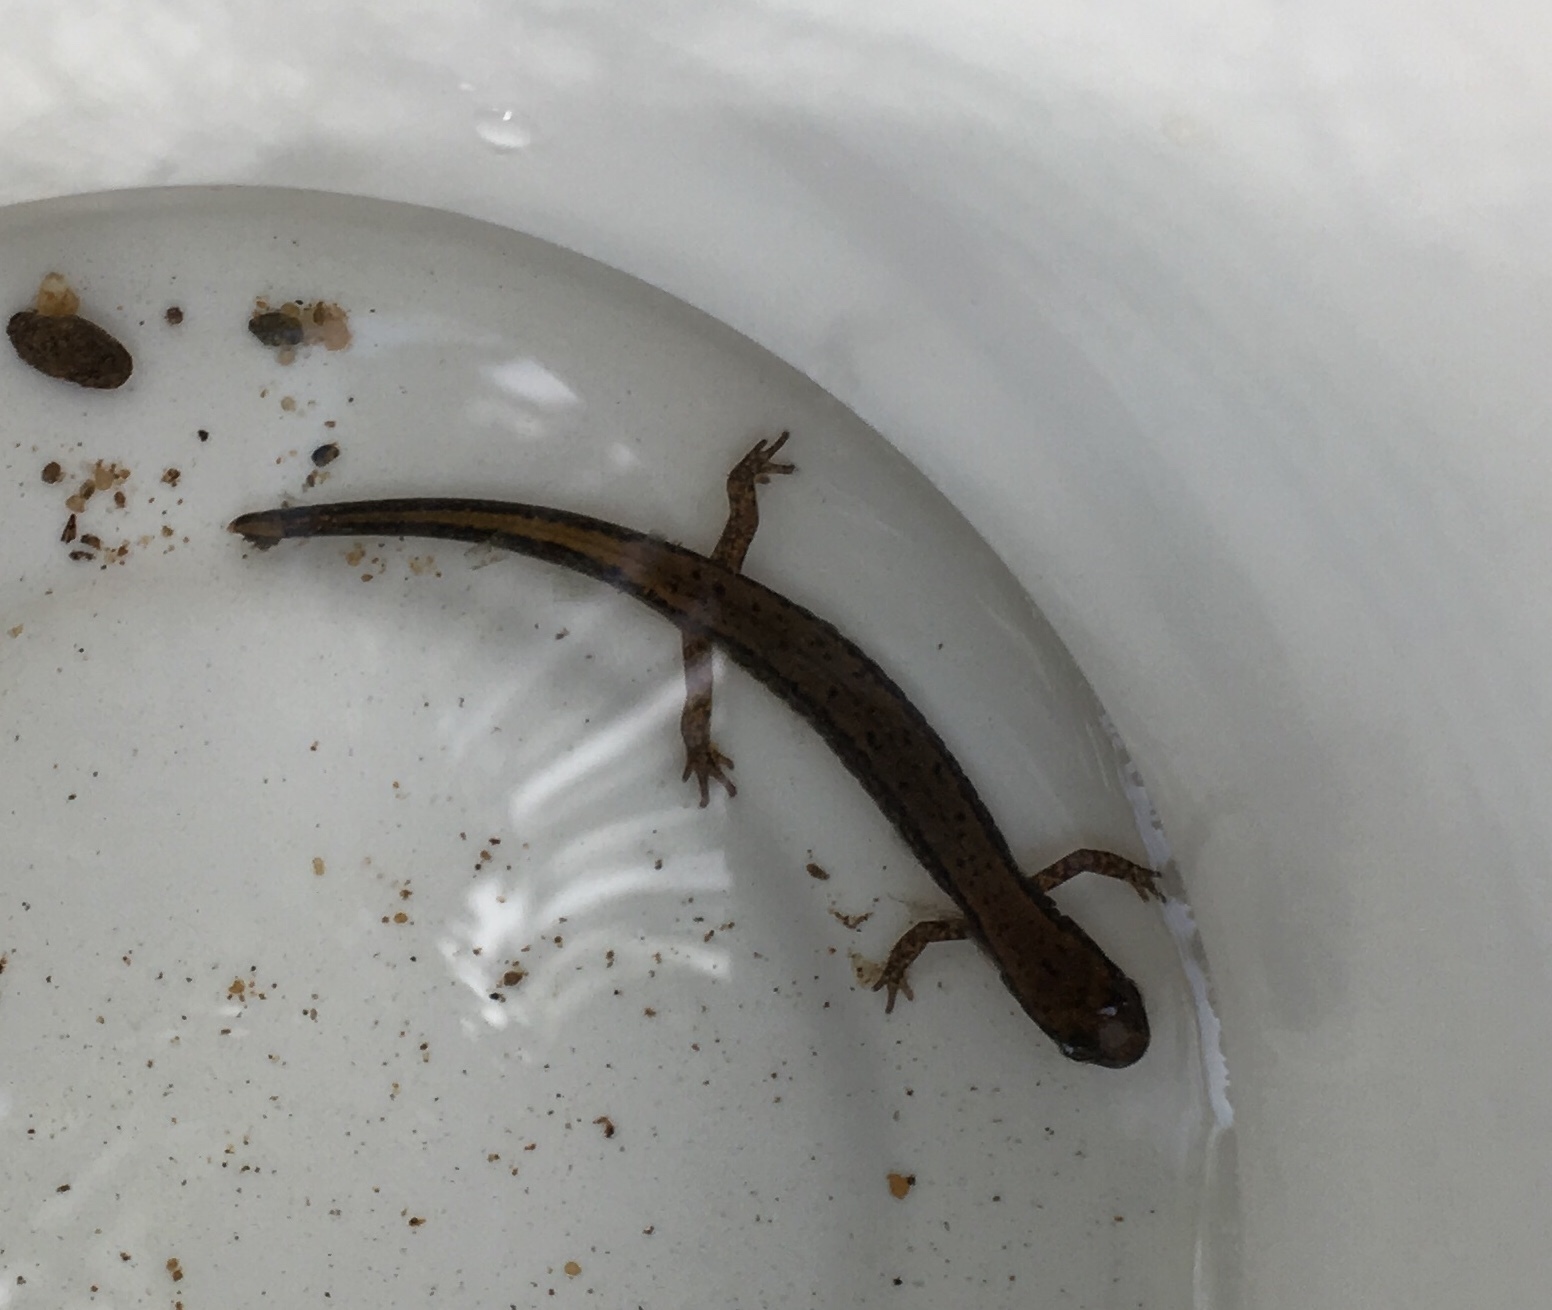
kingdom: Animalia
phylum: Chordata
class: Amphibia
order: Caudata
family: Plethodontidae
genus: Eurycea
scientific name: Eurycea bislineata
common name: Northern two-lined salamander
